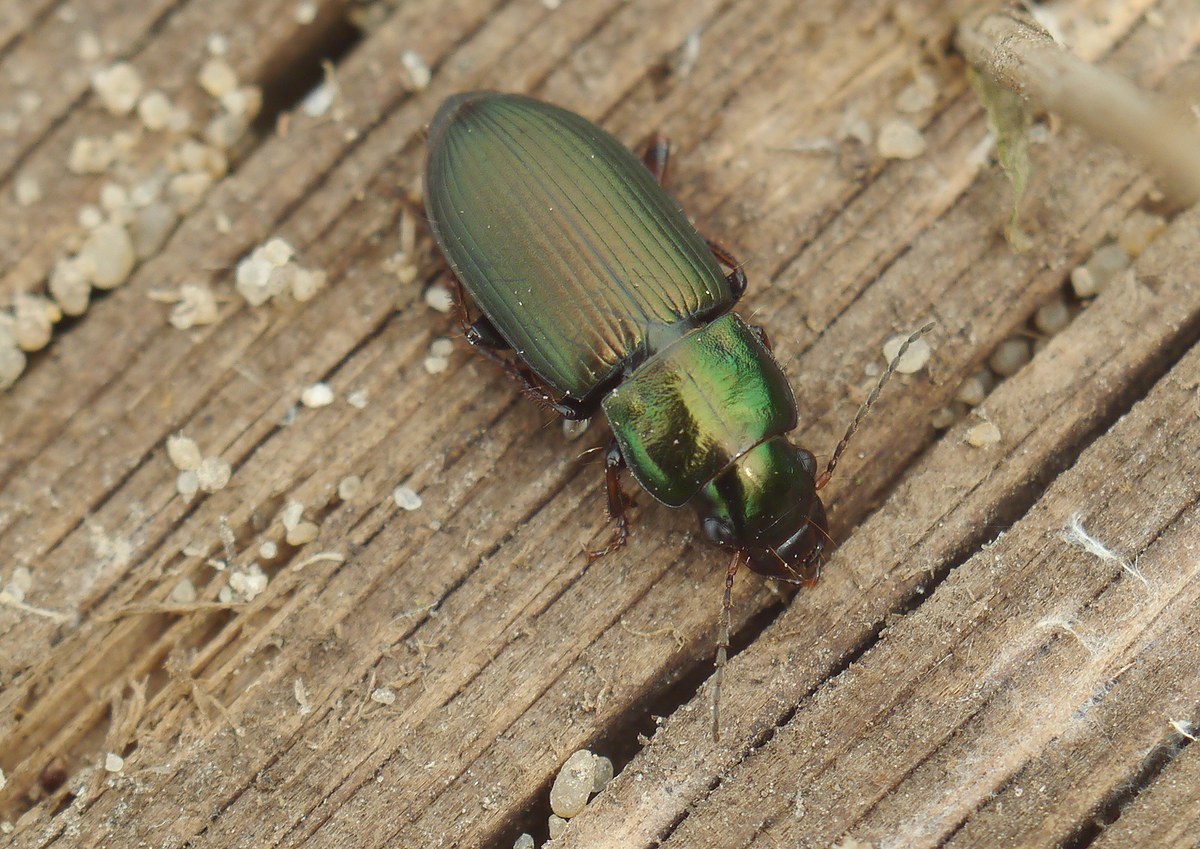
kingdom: Animalia
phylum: Arthropoda
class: Insecta
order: Coleoptera
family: Carabidae
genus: Harpalus
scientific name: Harpalus distinguendus
